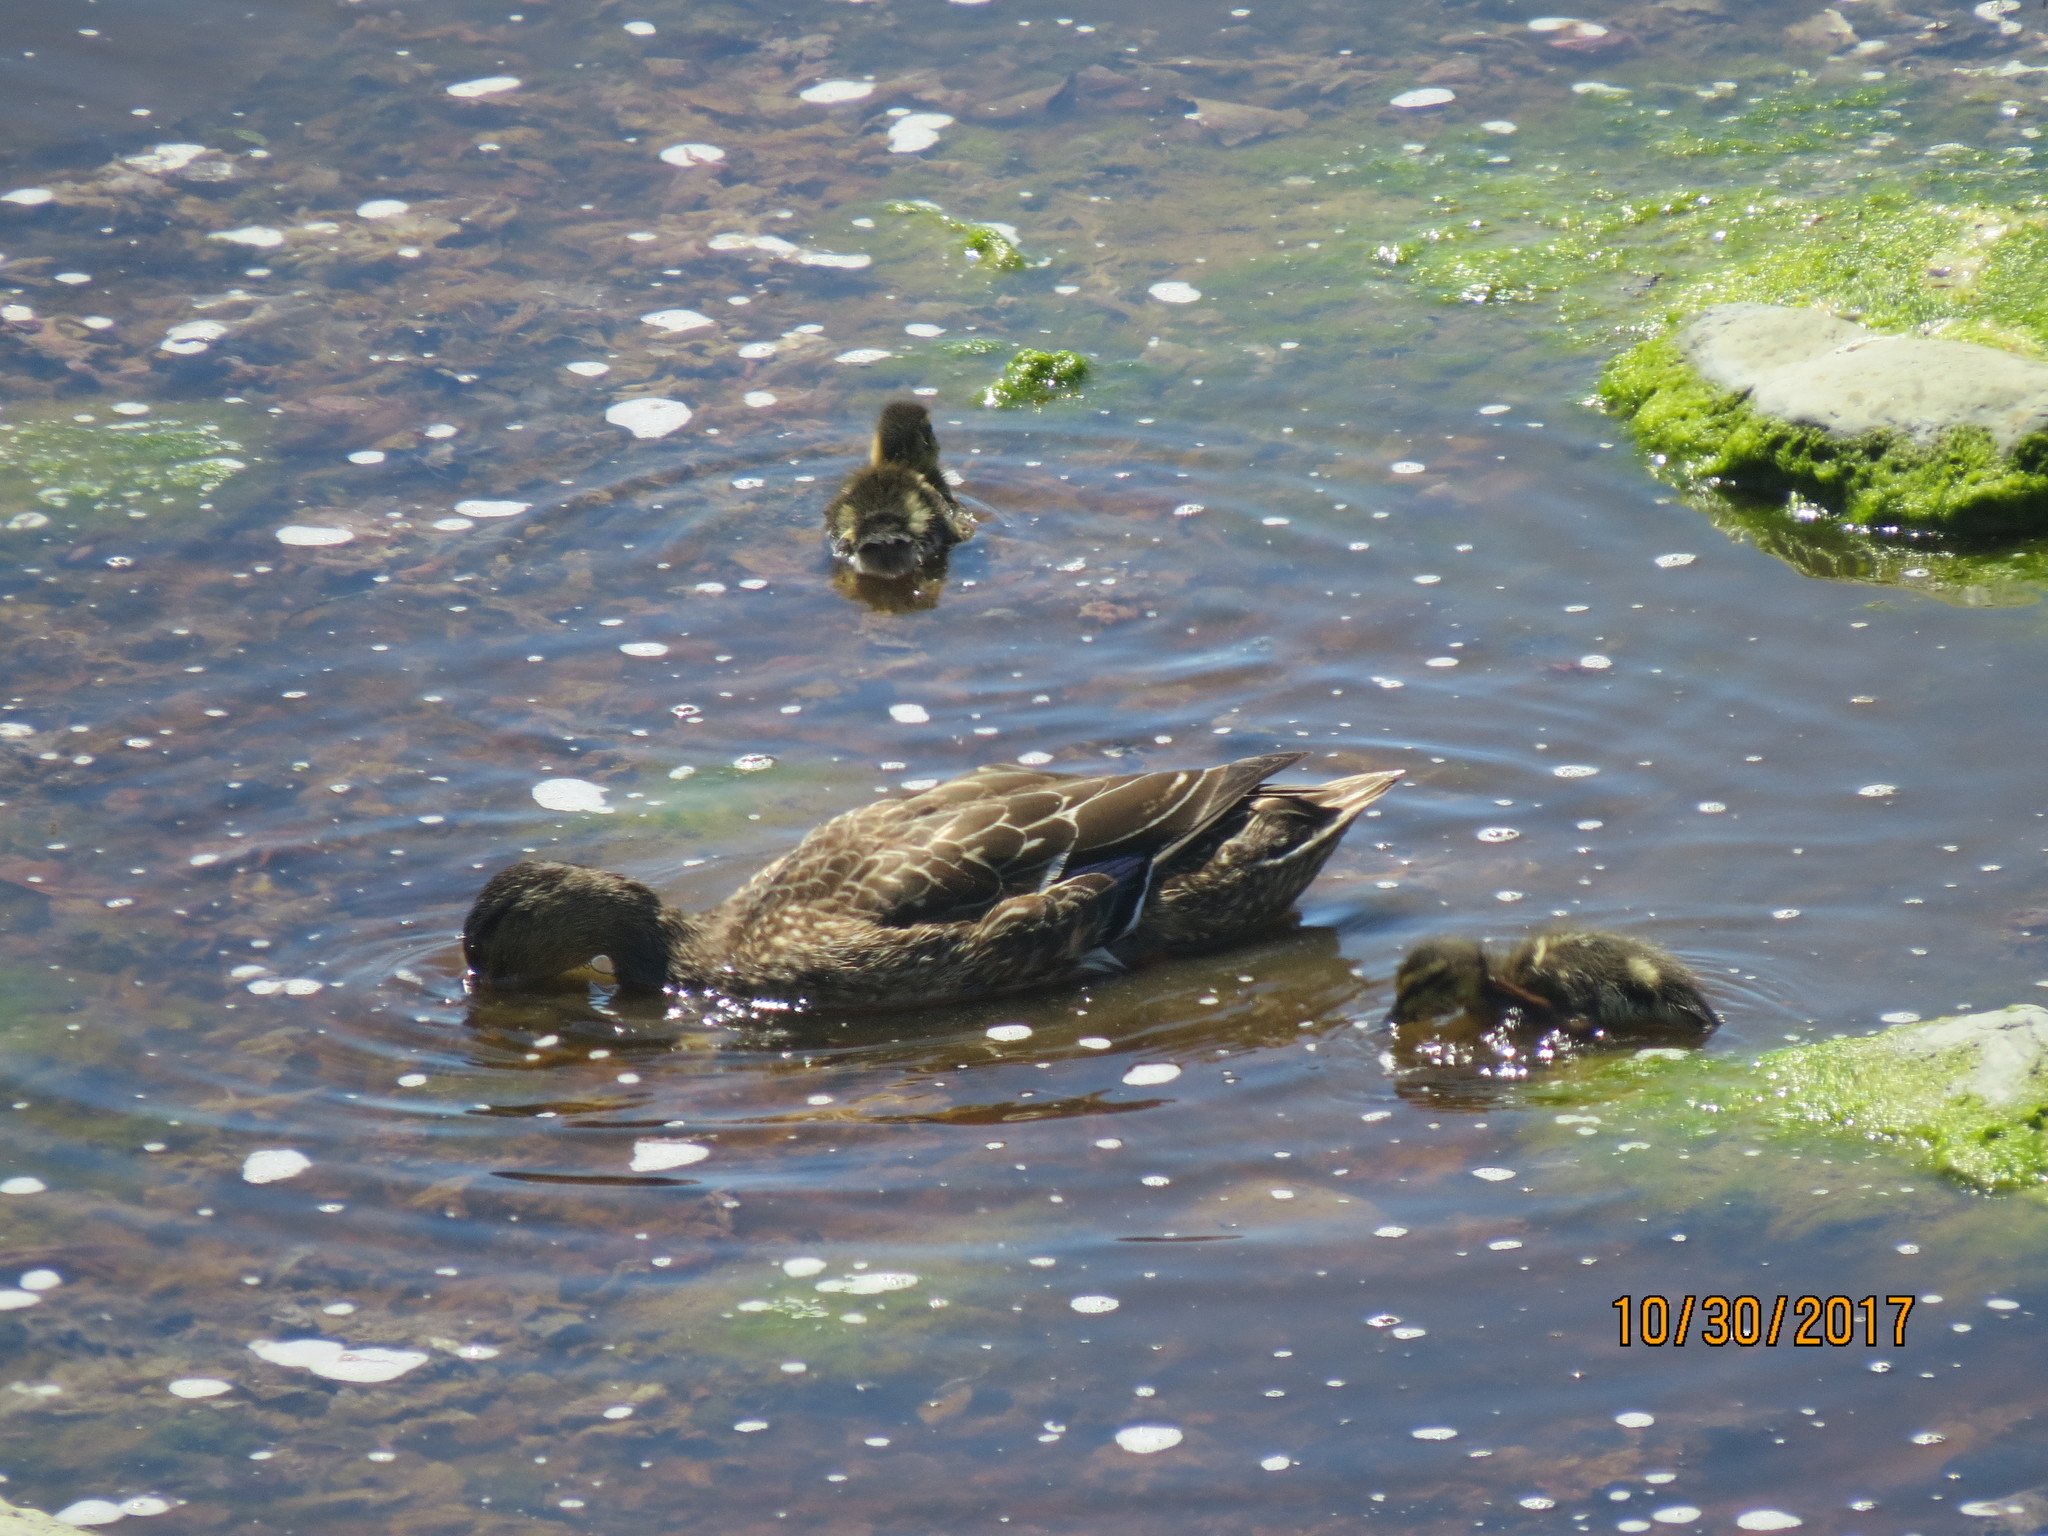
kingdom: Animalia
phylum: Chordata
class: Aves
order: Anseriformes
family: Anatidae
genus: Anas
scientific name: Anas platyrhynchos
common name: Mallard
